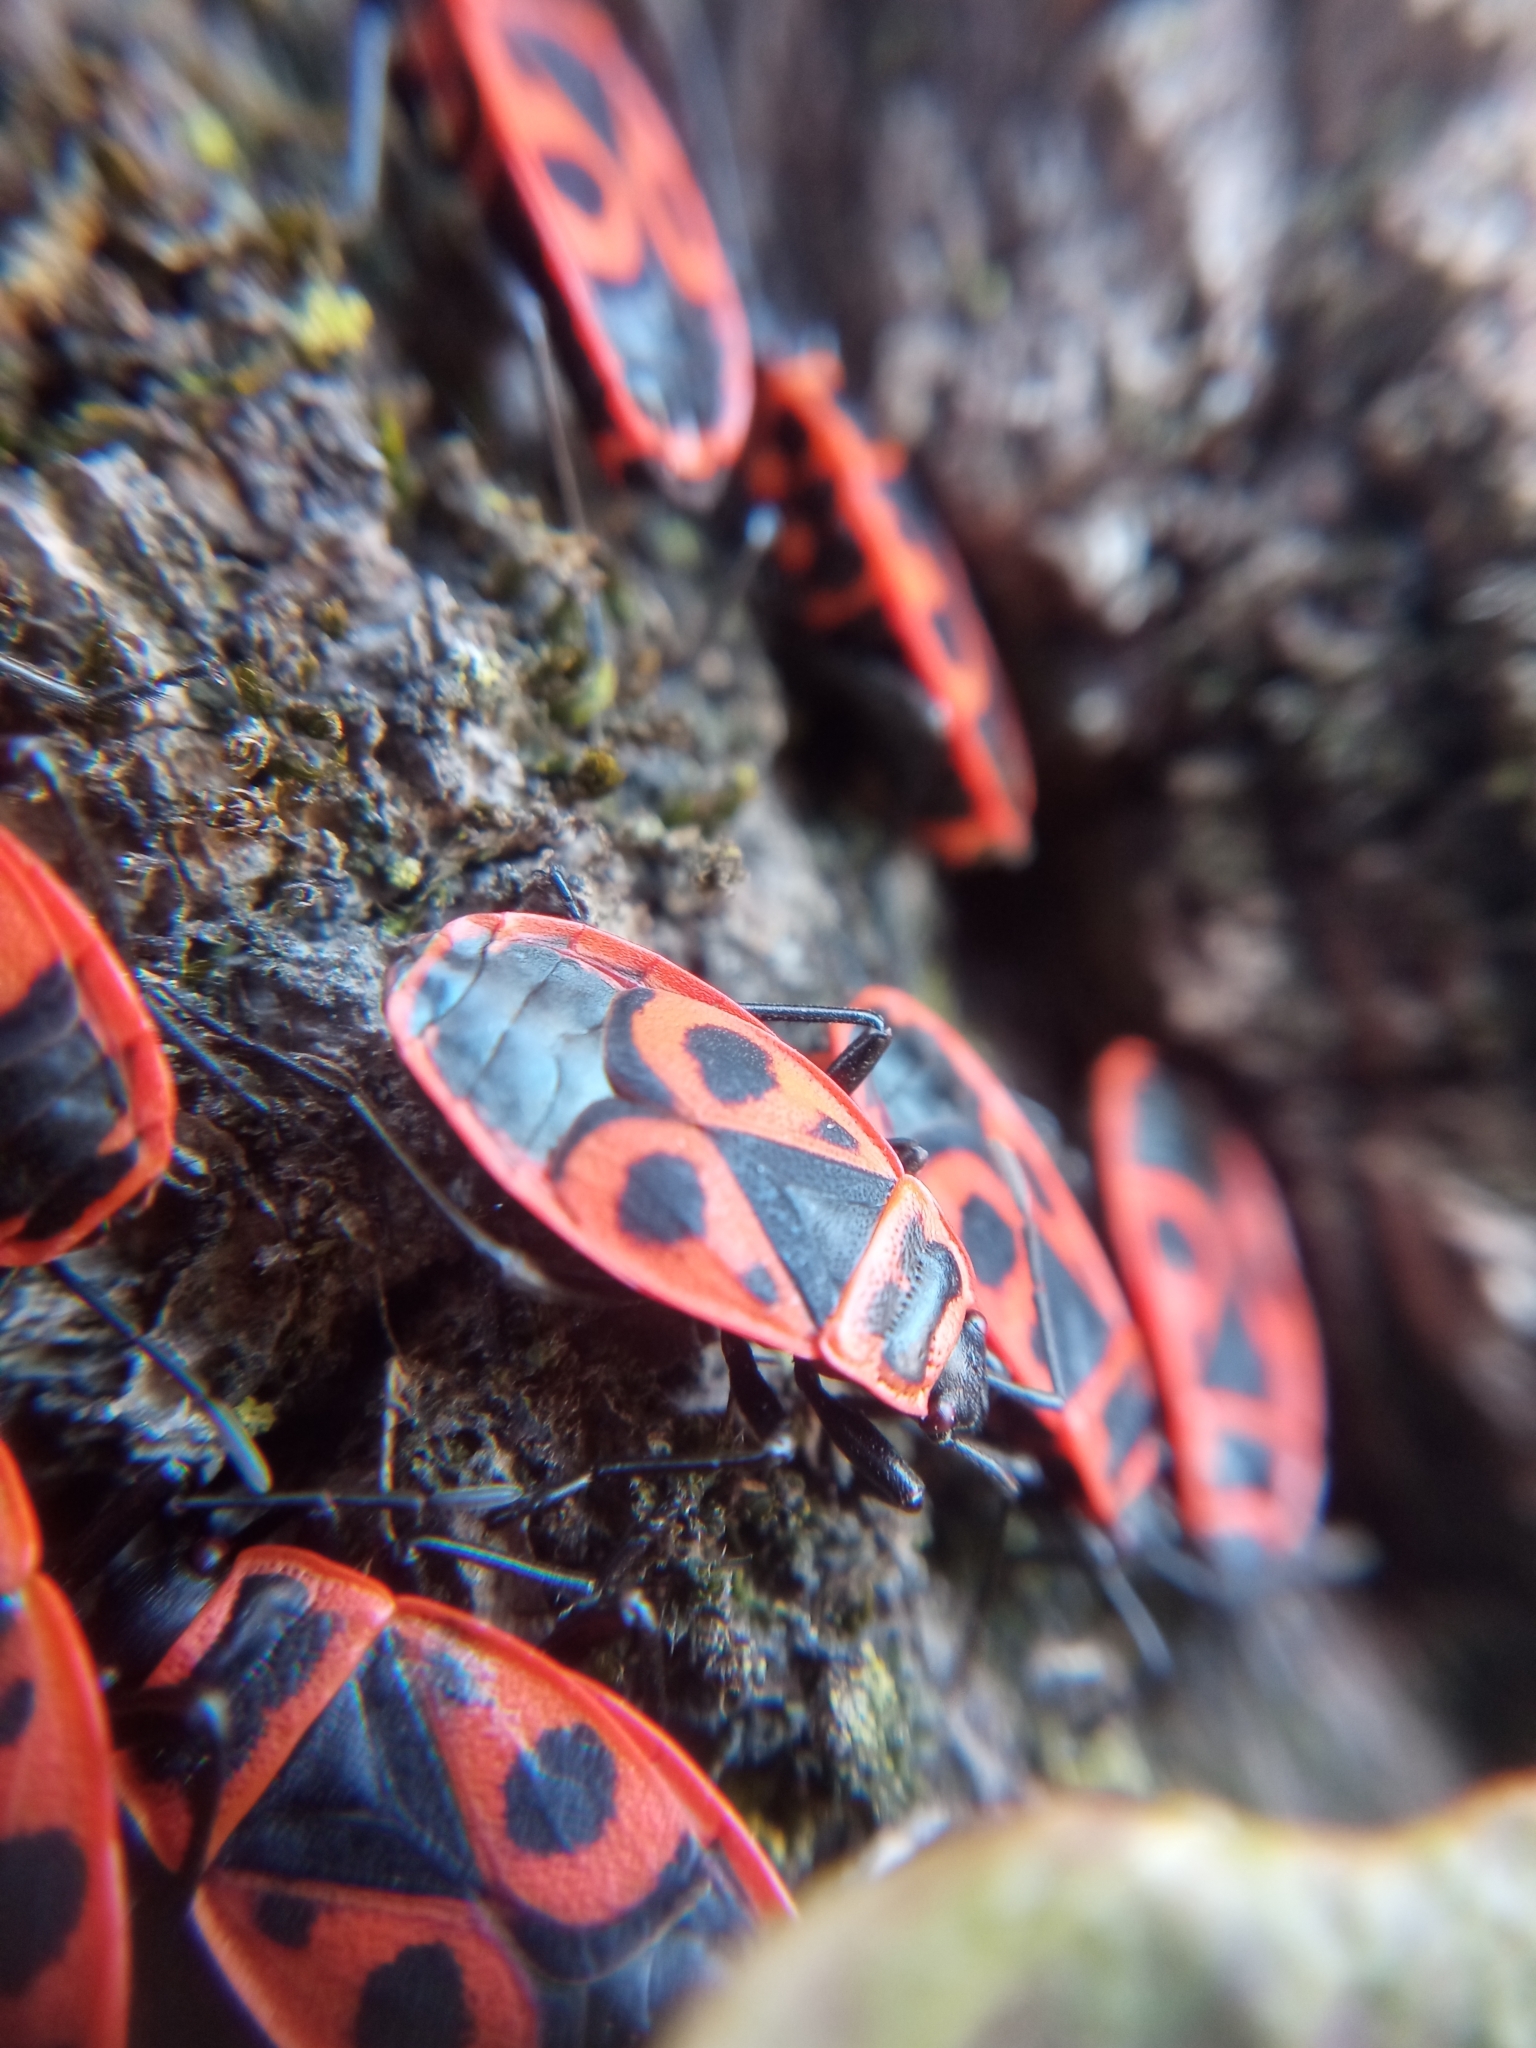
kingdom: Animalia
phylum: Arthropoda
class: Insecta
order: Hemiptera
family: Pyrrhocoridae
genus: Pyrrhocoris
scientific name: Pyrrhocoris apterus
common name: Firebug
